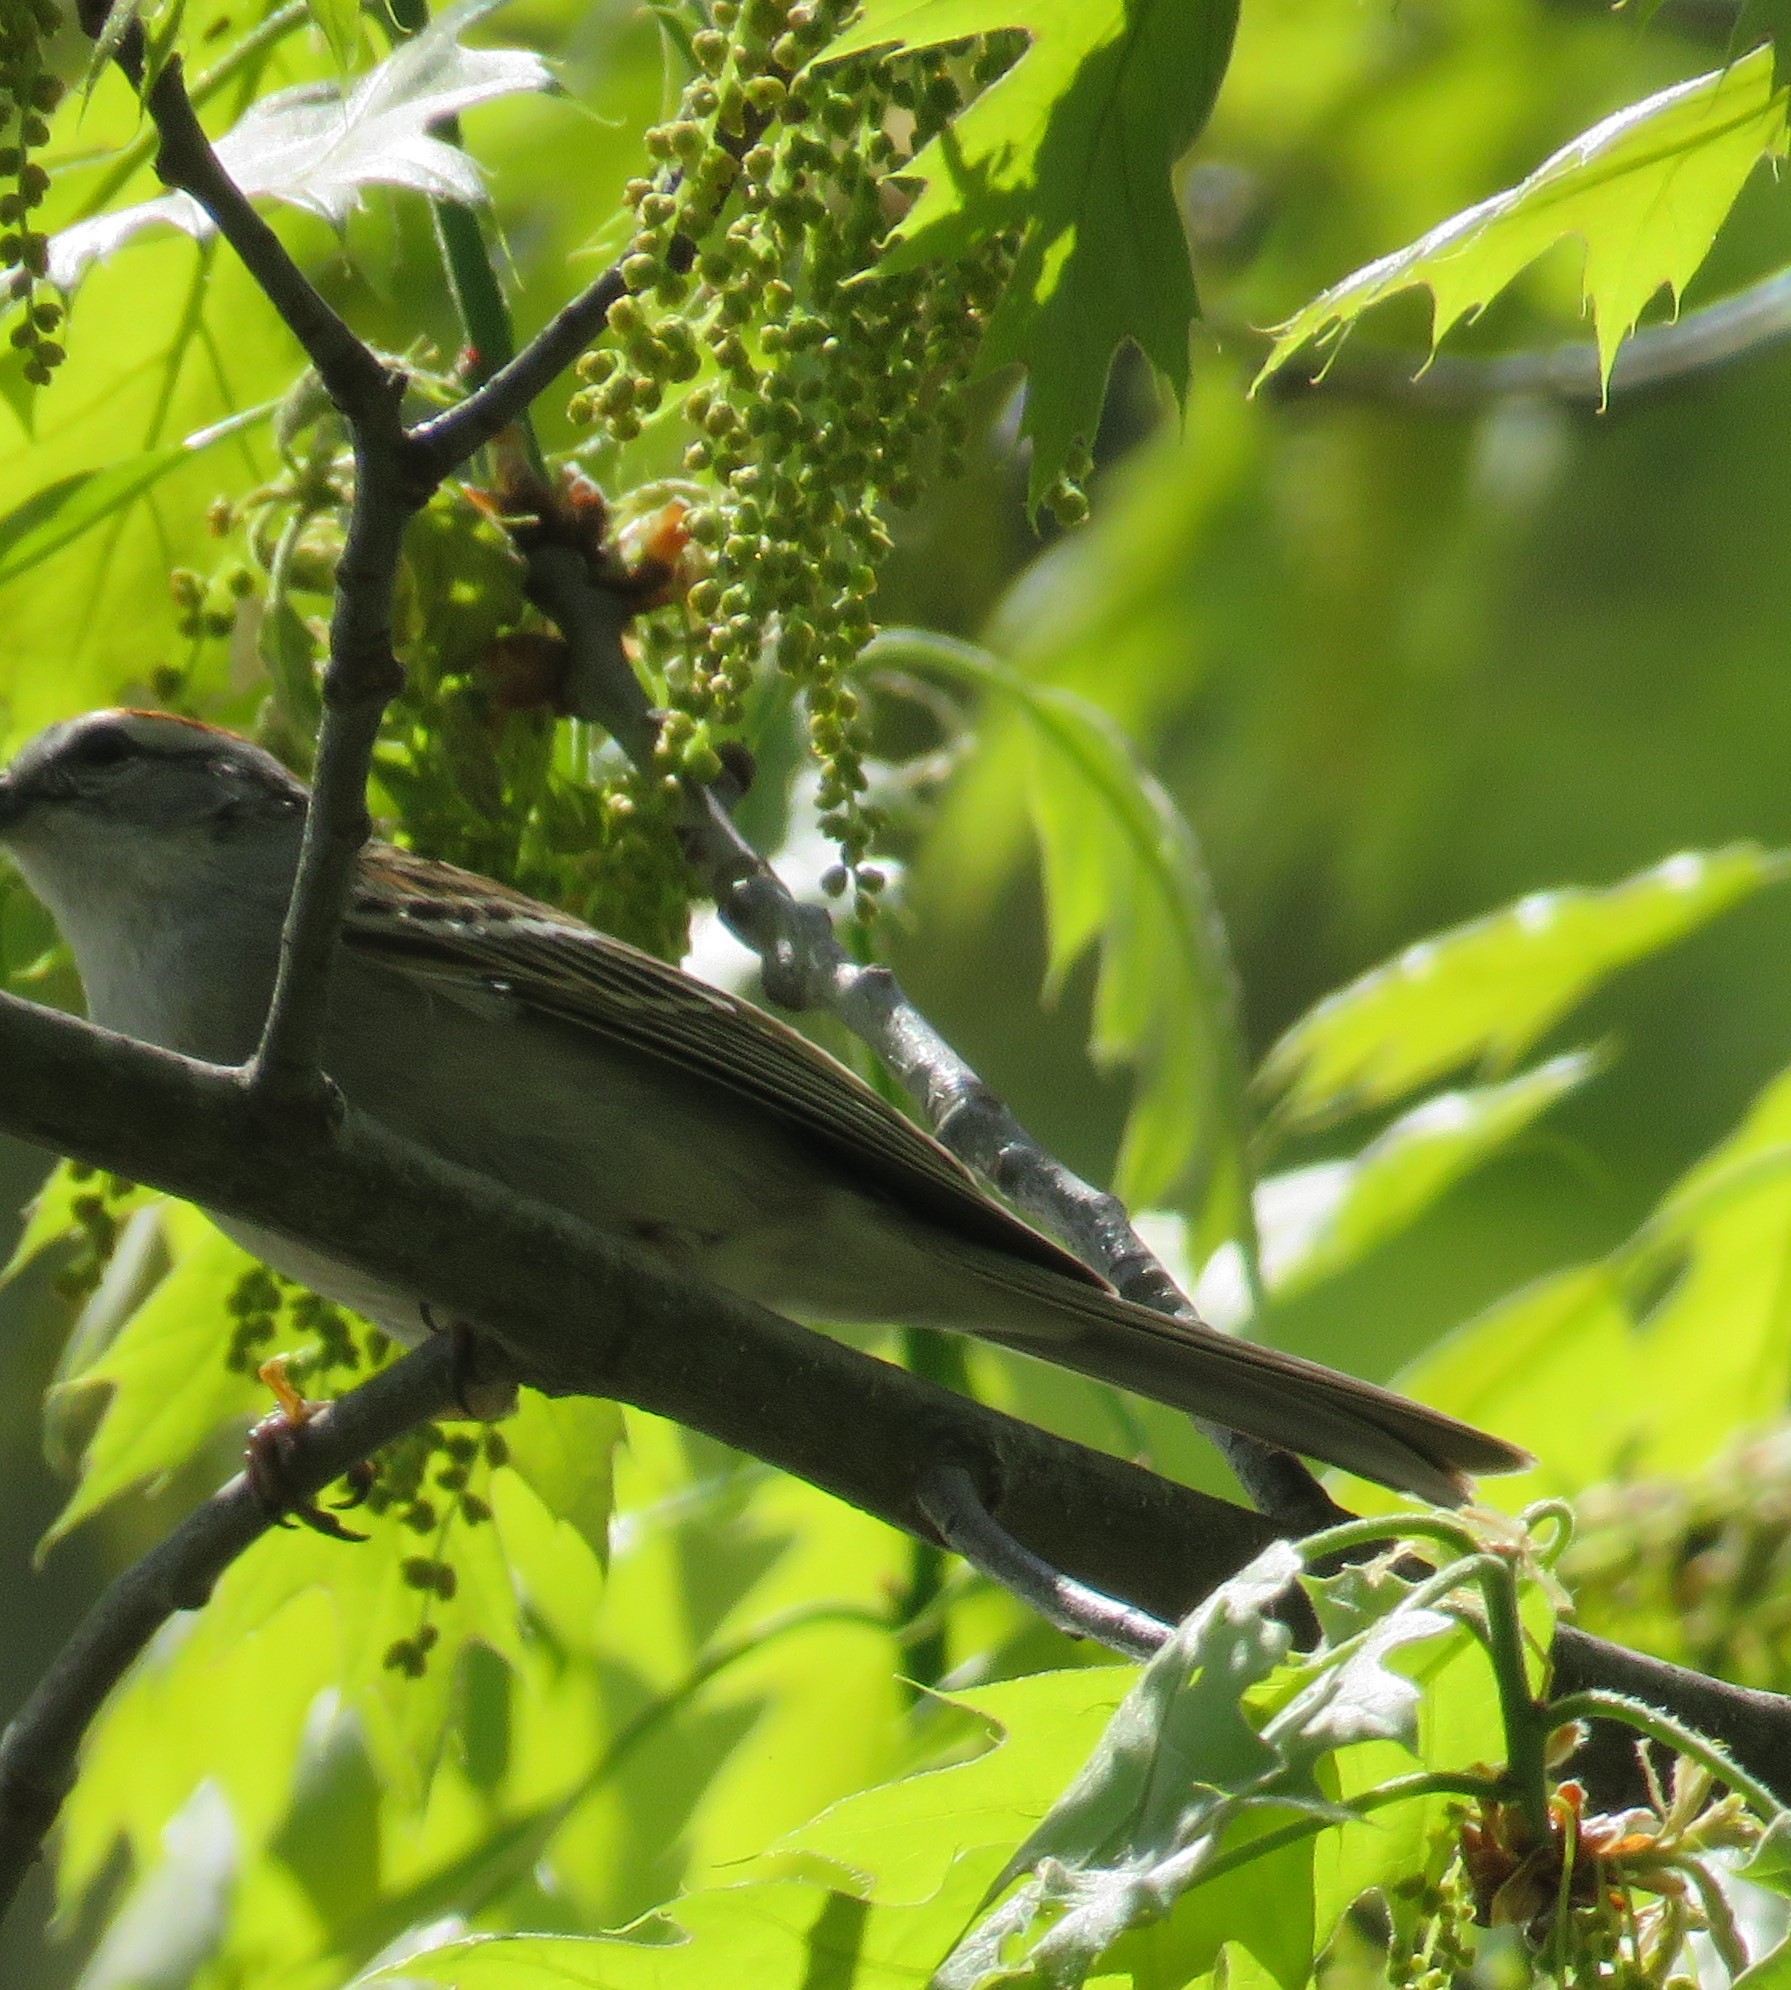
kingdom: Animalia
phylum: Chordata
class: Aves
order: Passeriformes
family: Passerellidae
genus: Spizella
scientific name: Spizella passerina
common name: Chipping sparrow
